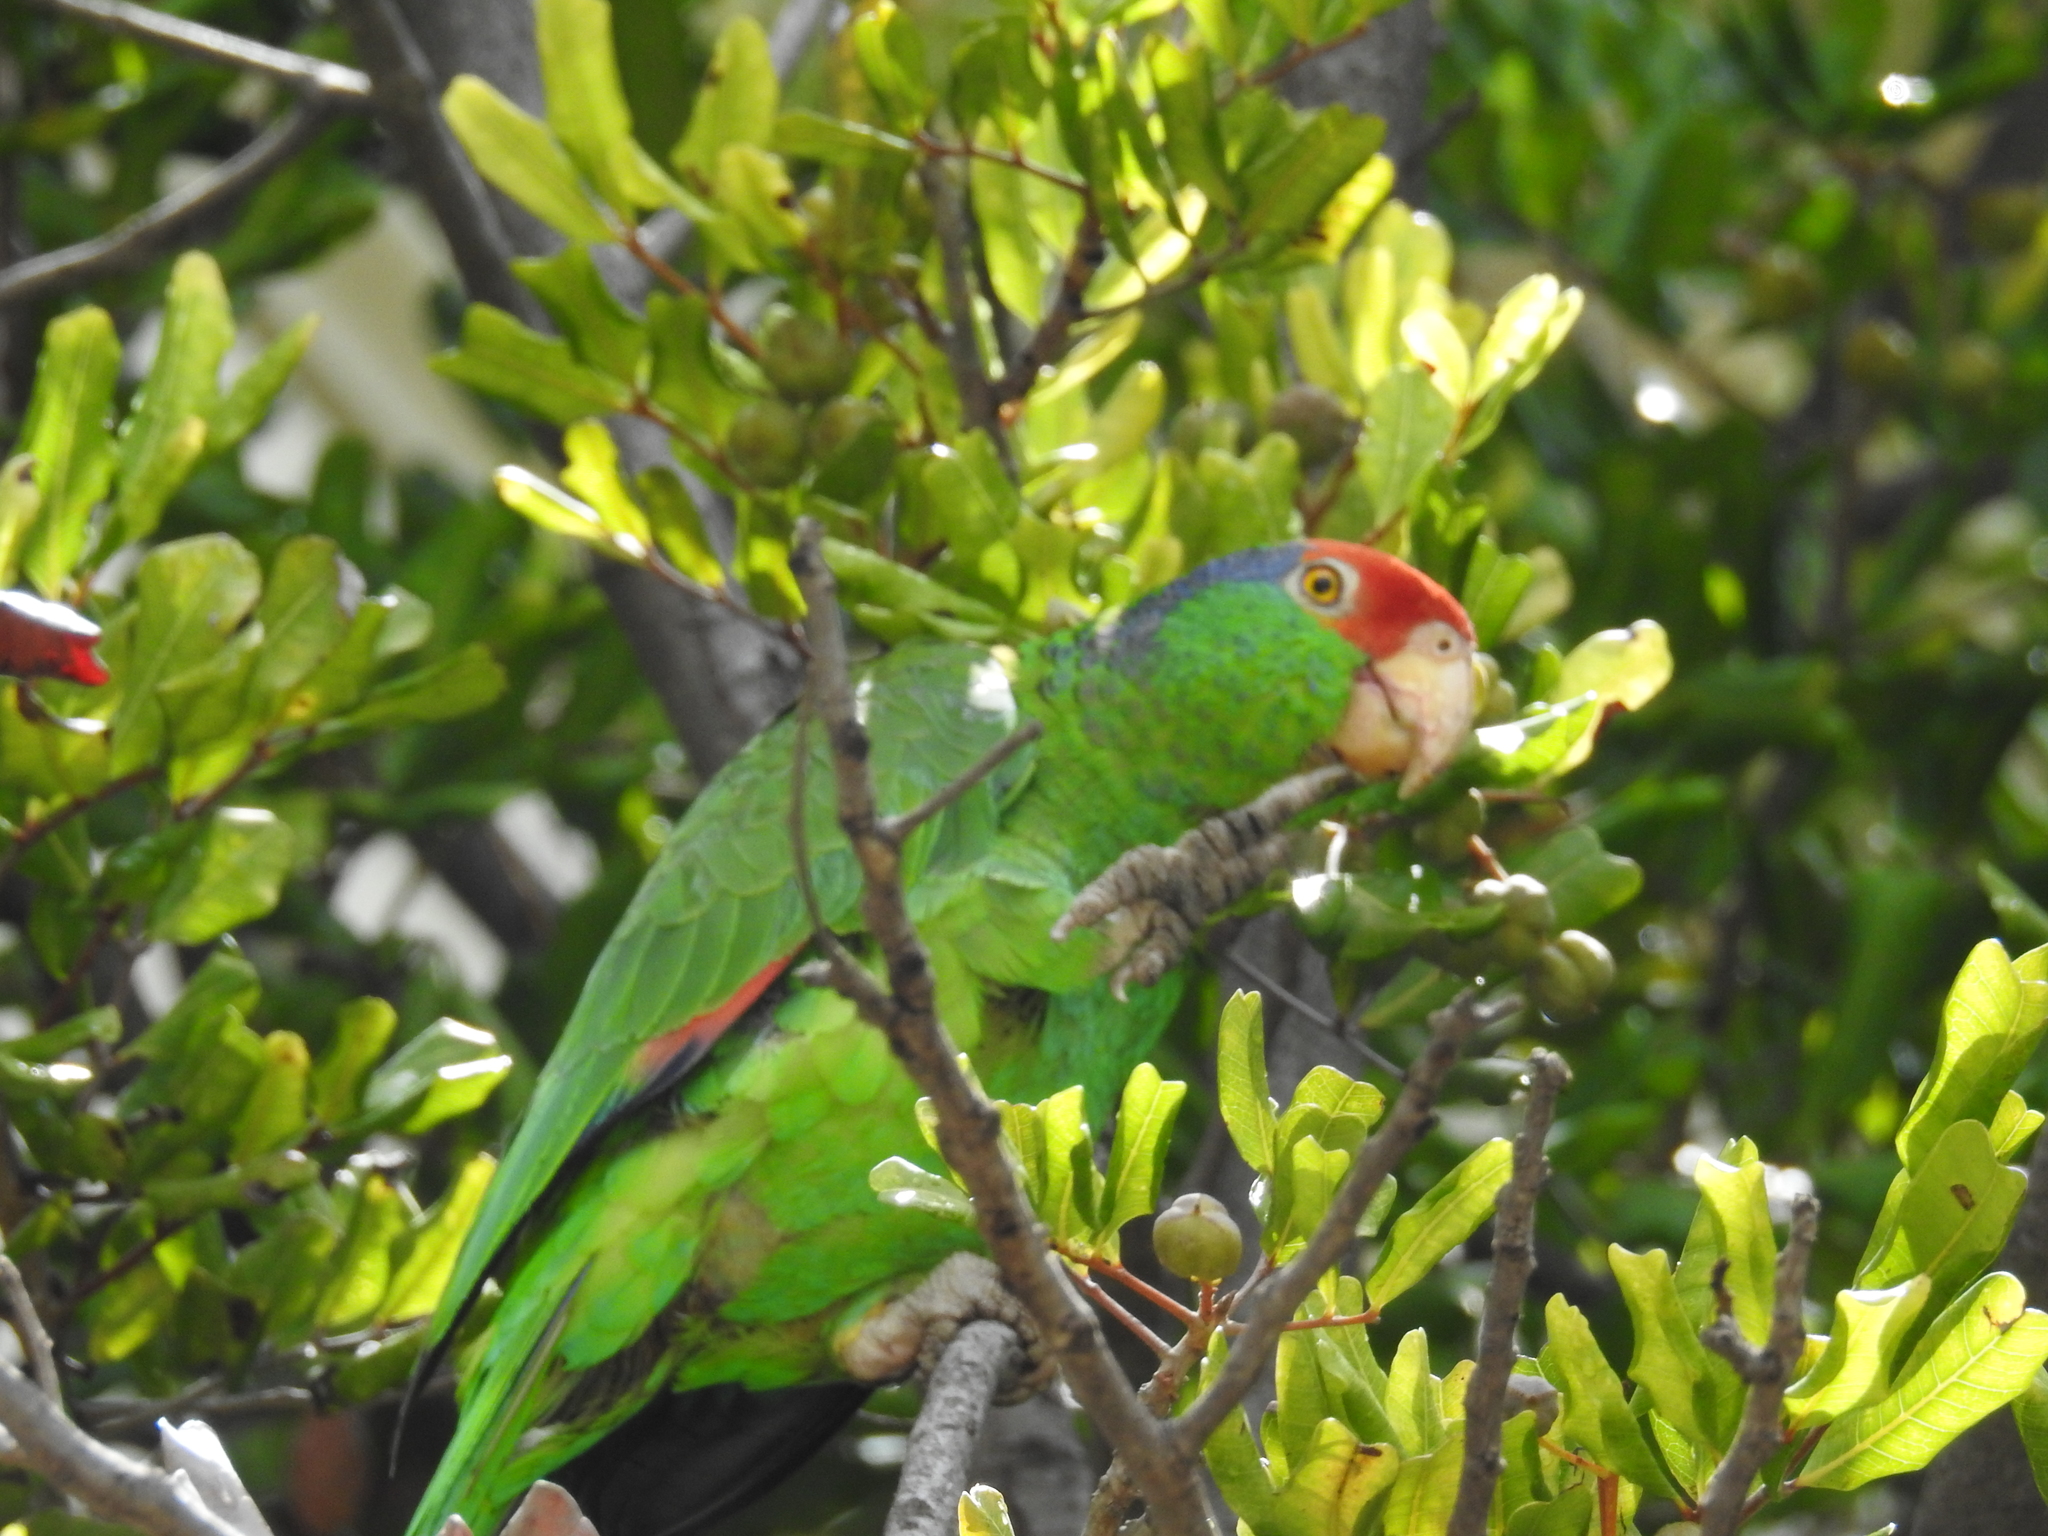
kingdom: Animalia
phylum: Chordata
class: Aves
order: Psittaciformes
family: Psittacidae
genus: Amazona
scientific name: Amazona viridigenalis
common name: Red-crowned amazon
